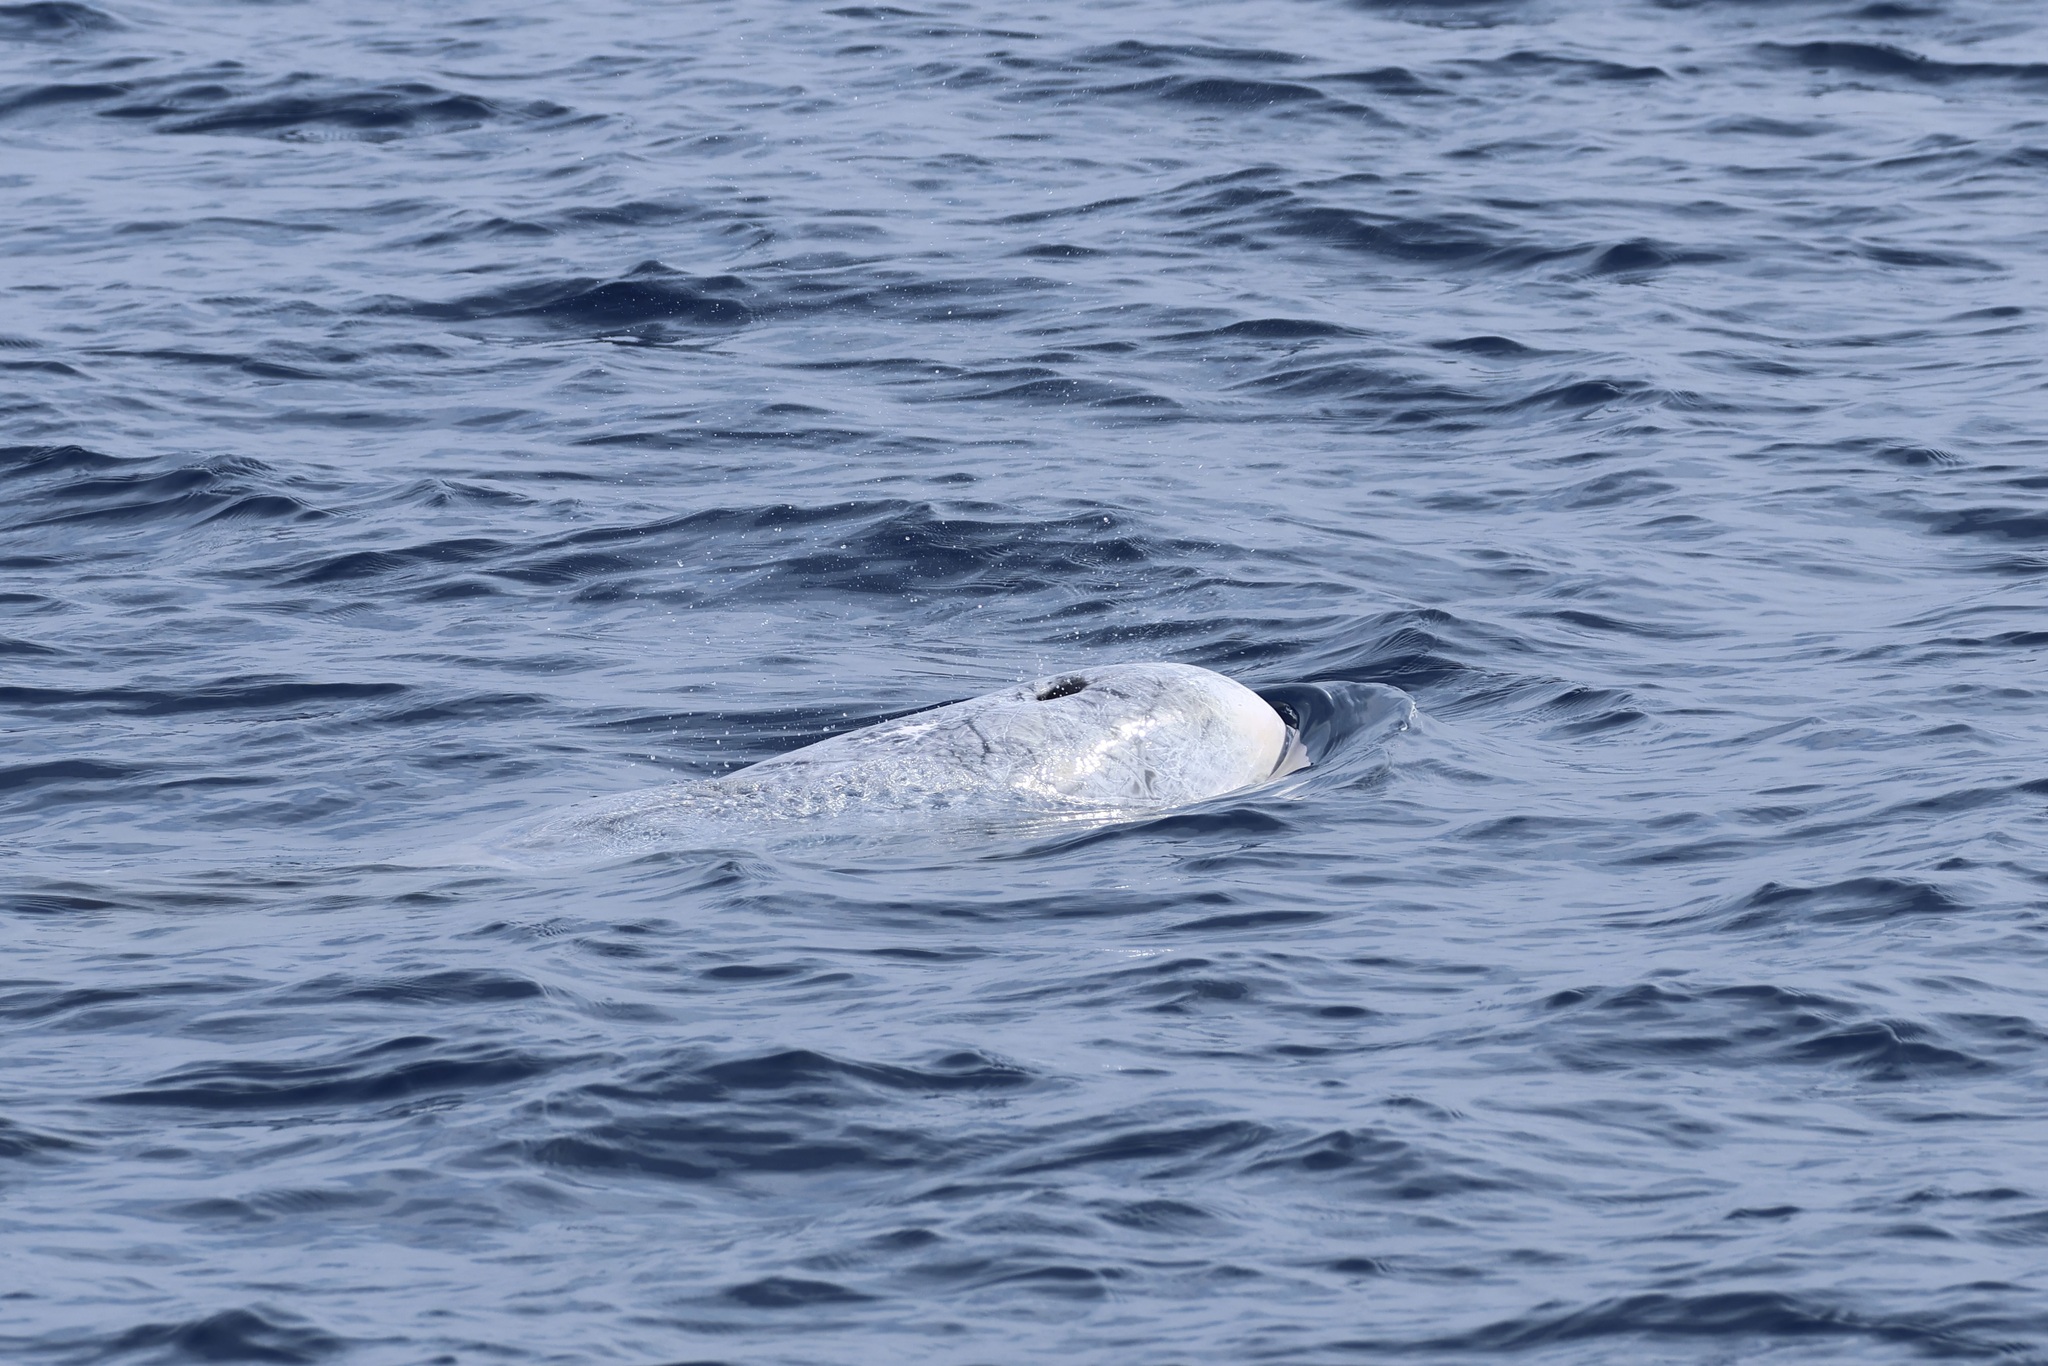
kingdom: Animalia
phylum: Chordata
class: Mammalia
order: Cetacea
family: Delphinidae
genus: Grampus
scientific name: Grampus griseus
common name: Risso's dolphin
